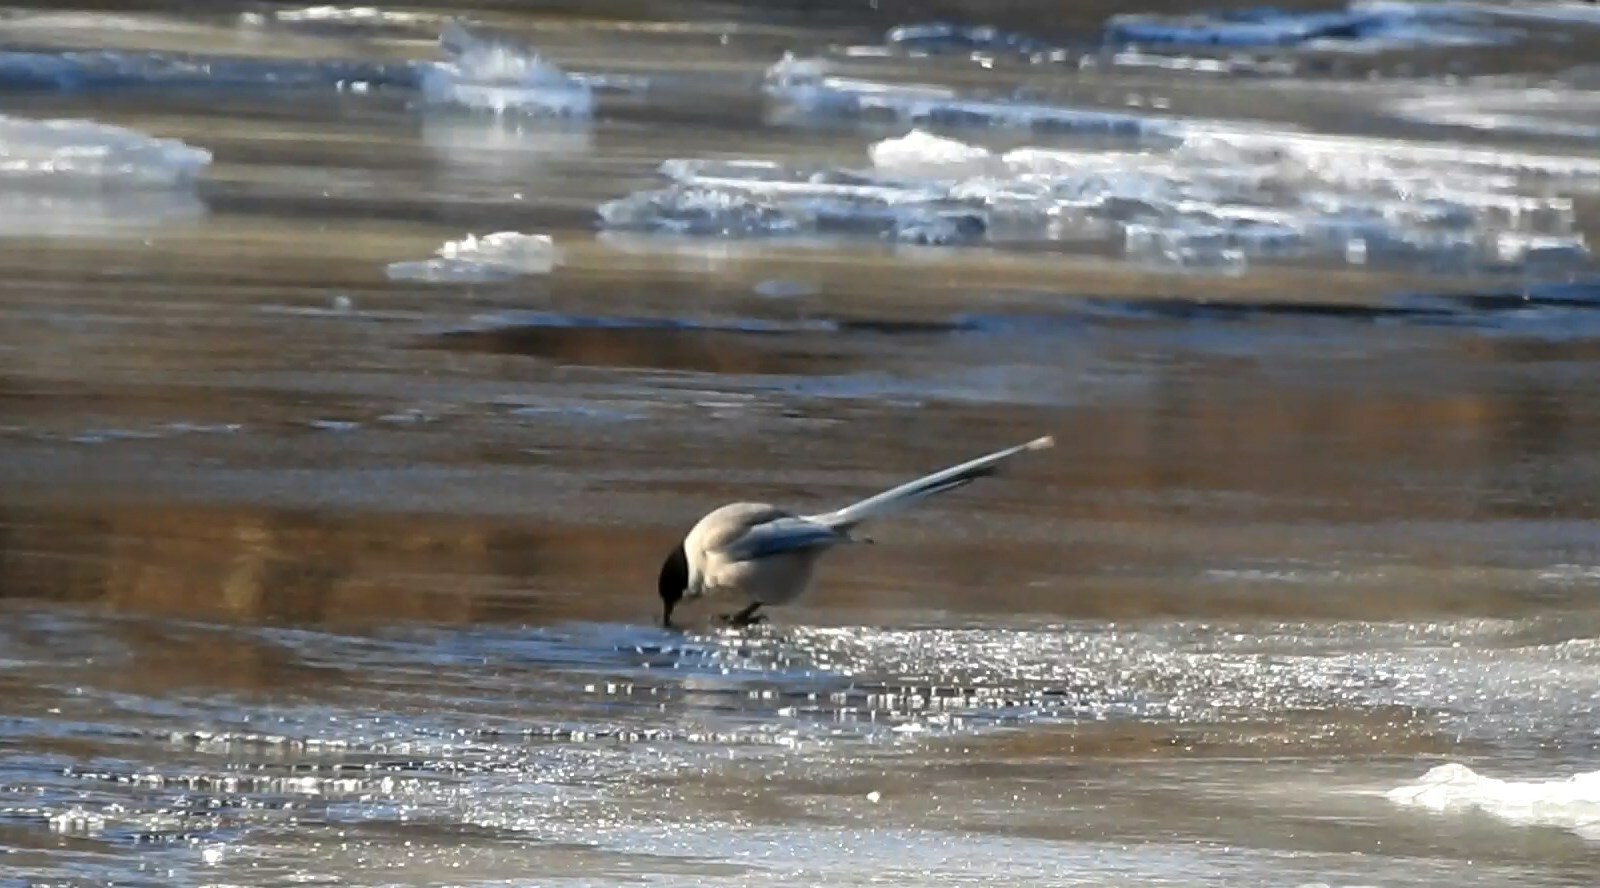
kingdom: Animalia
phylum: Chordata
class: Aves
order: Passeriformes
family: Corvidae
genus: Cyanopica
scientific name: Cyanopica cyanus
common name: Azure-winged magpie
